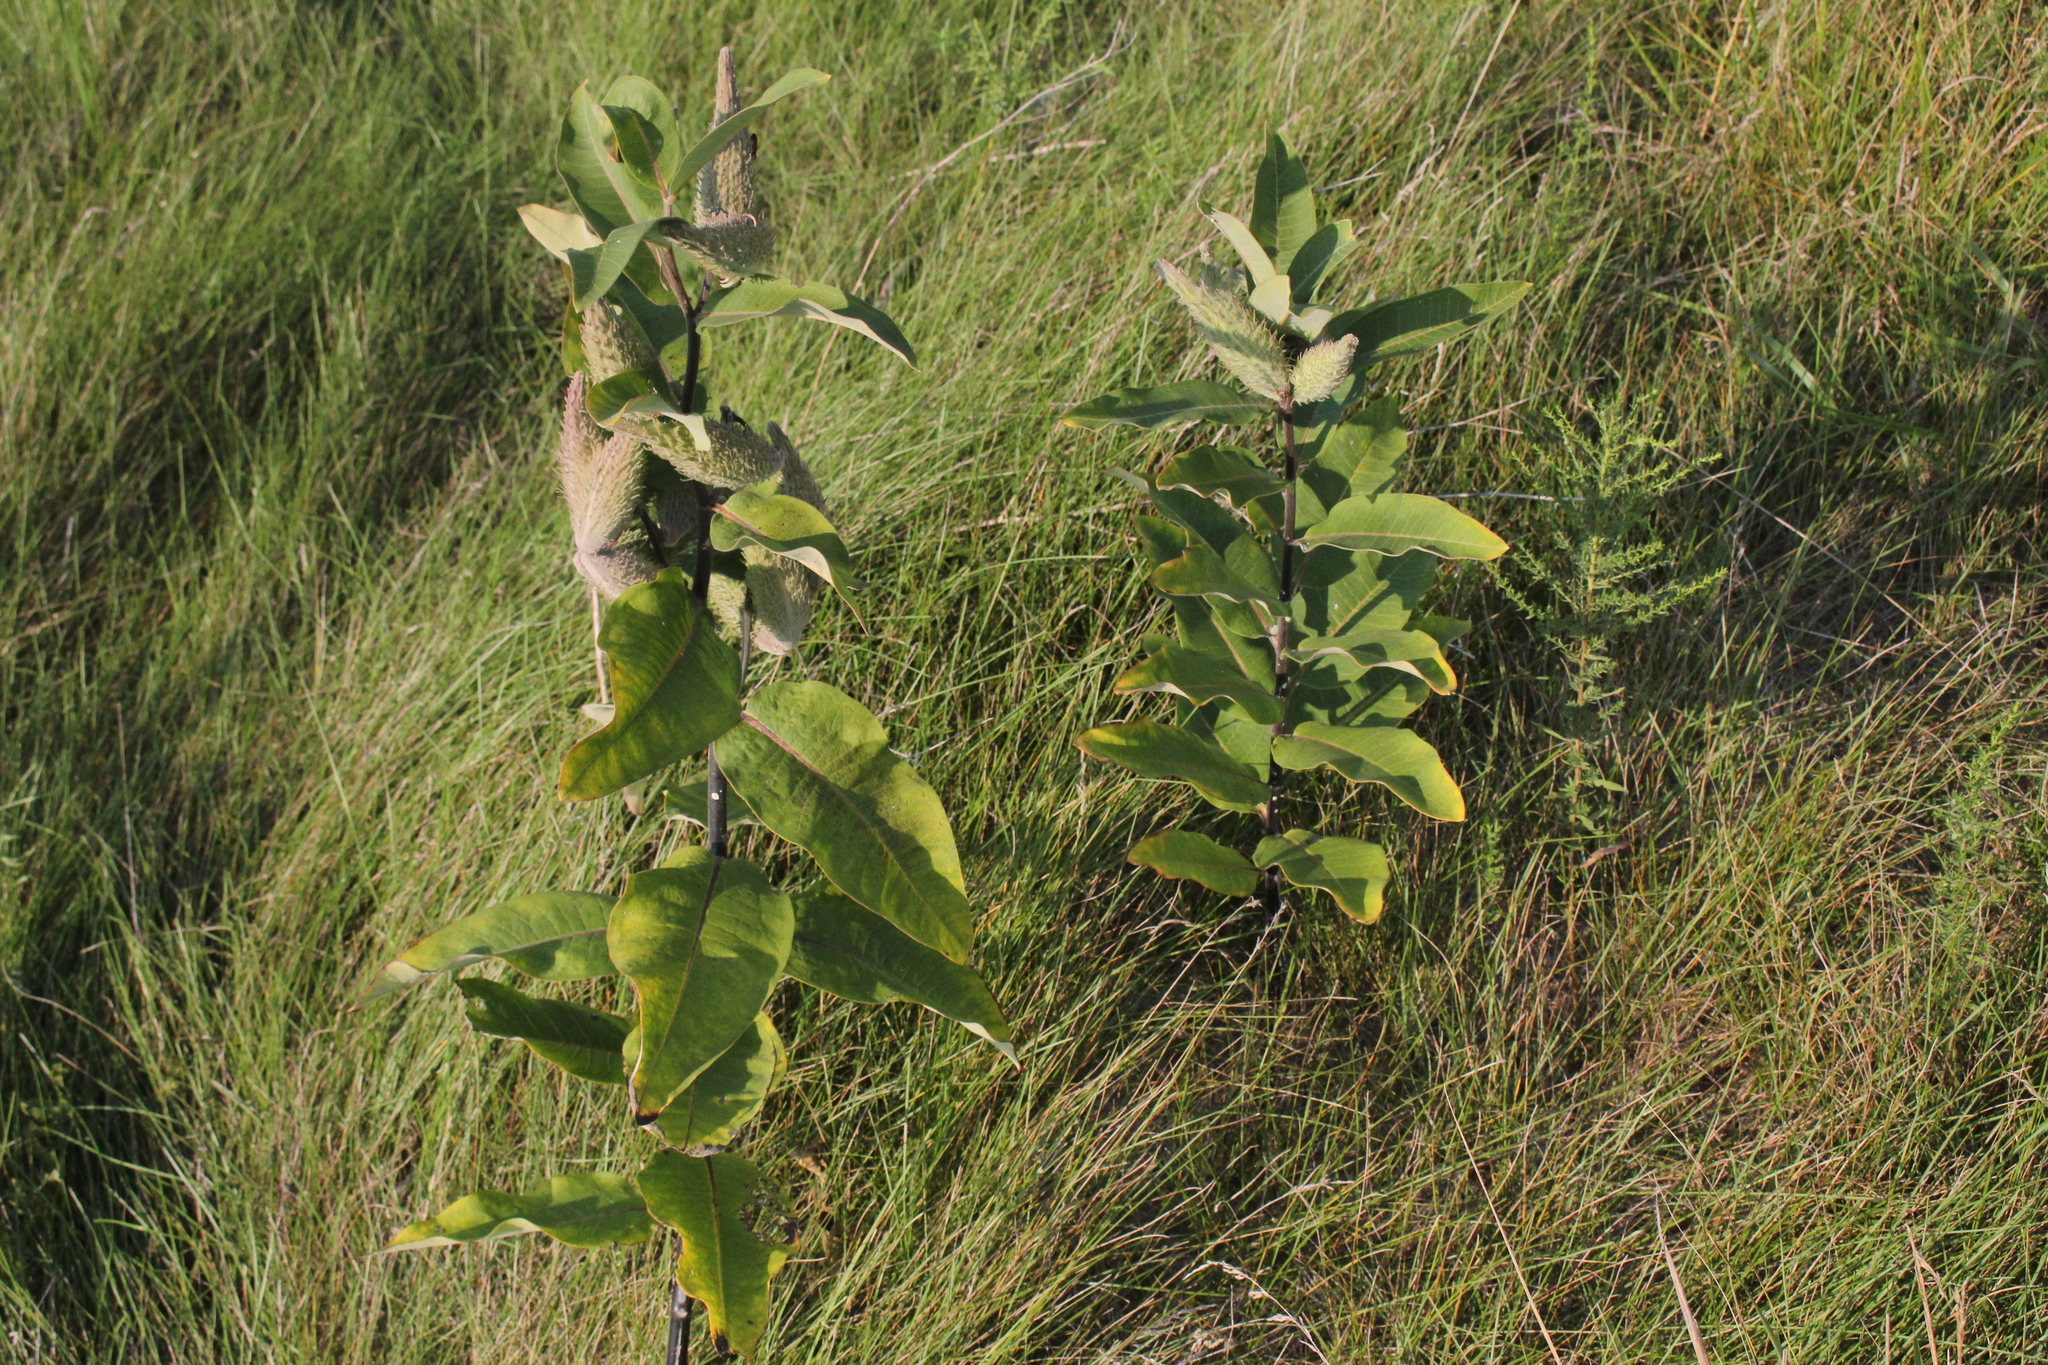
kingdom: Plantae
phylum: Tracheophyta
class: Magnoliopsida
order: Gentianales
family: Apocynaceae
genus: Asclepias
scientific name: Asclepias syriaca
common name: Common milkweed
